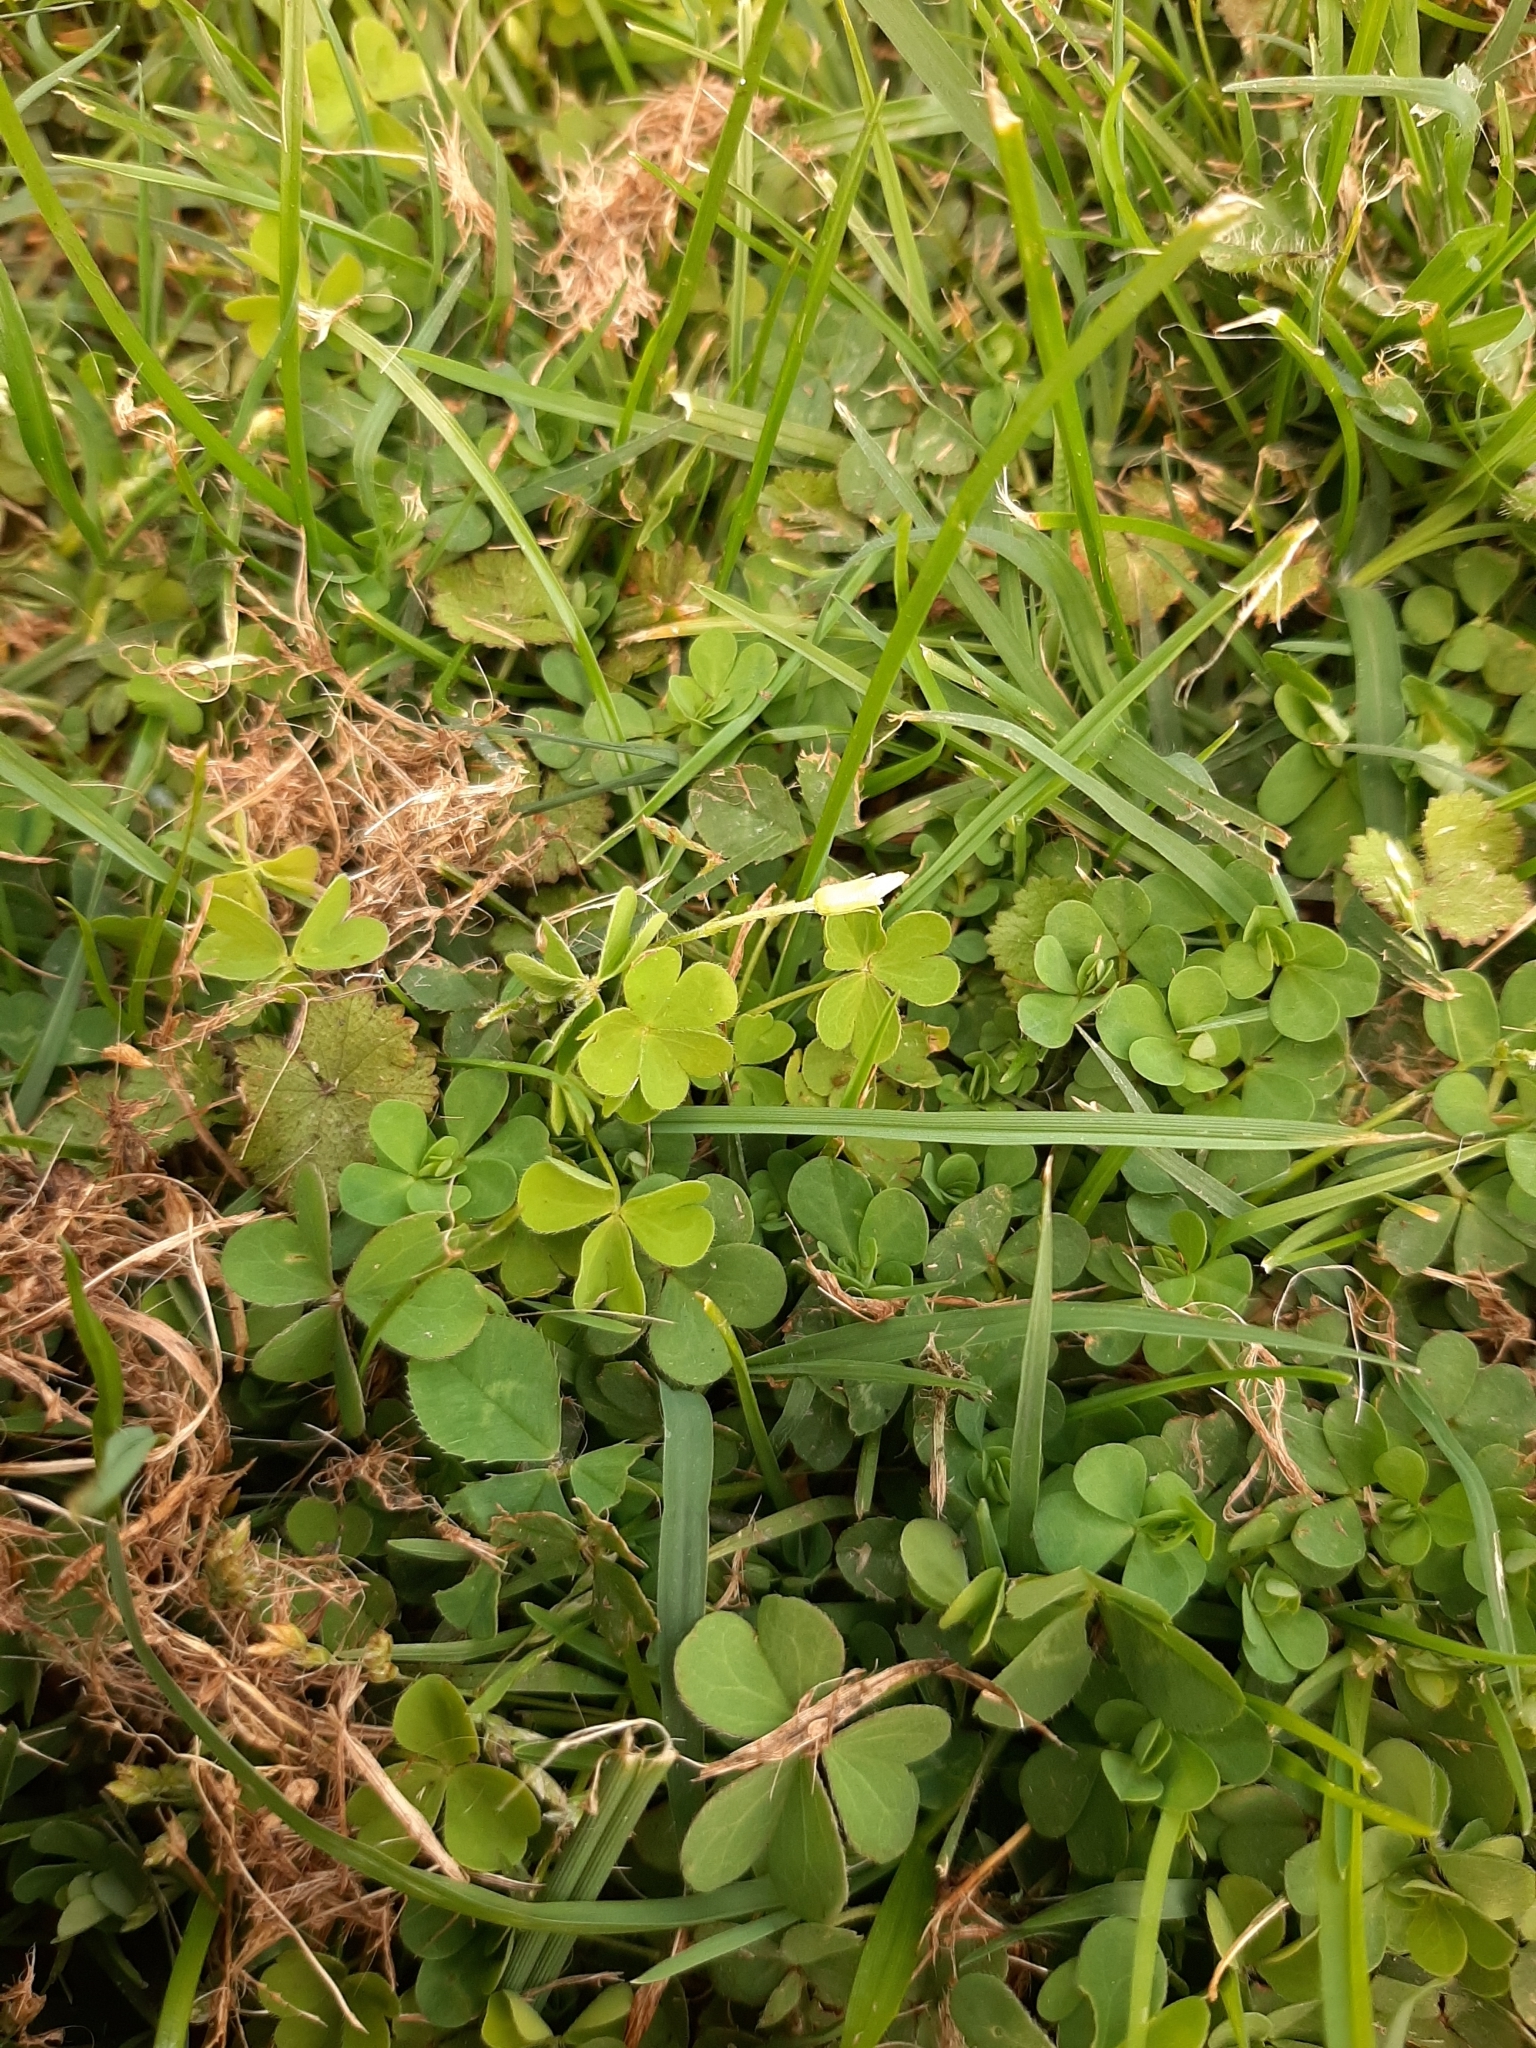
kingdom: Plantae
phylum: Tracheophyta
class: Magnoliopsida
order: Oxalidales
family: Oxalidaceae
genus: Oxalis
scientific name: Oxalis exilis
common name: Least yellow-sorrel
